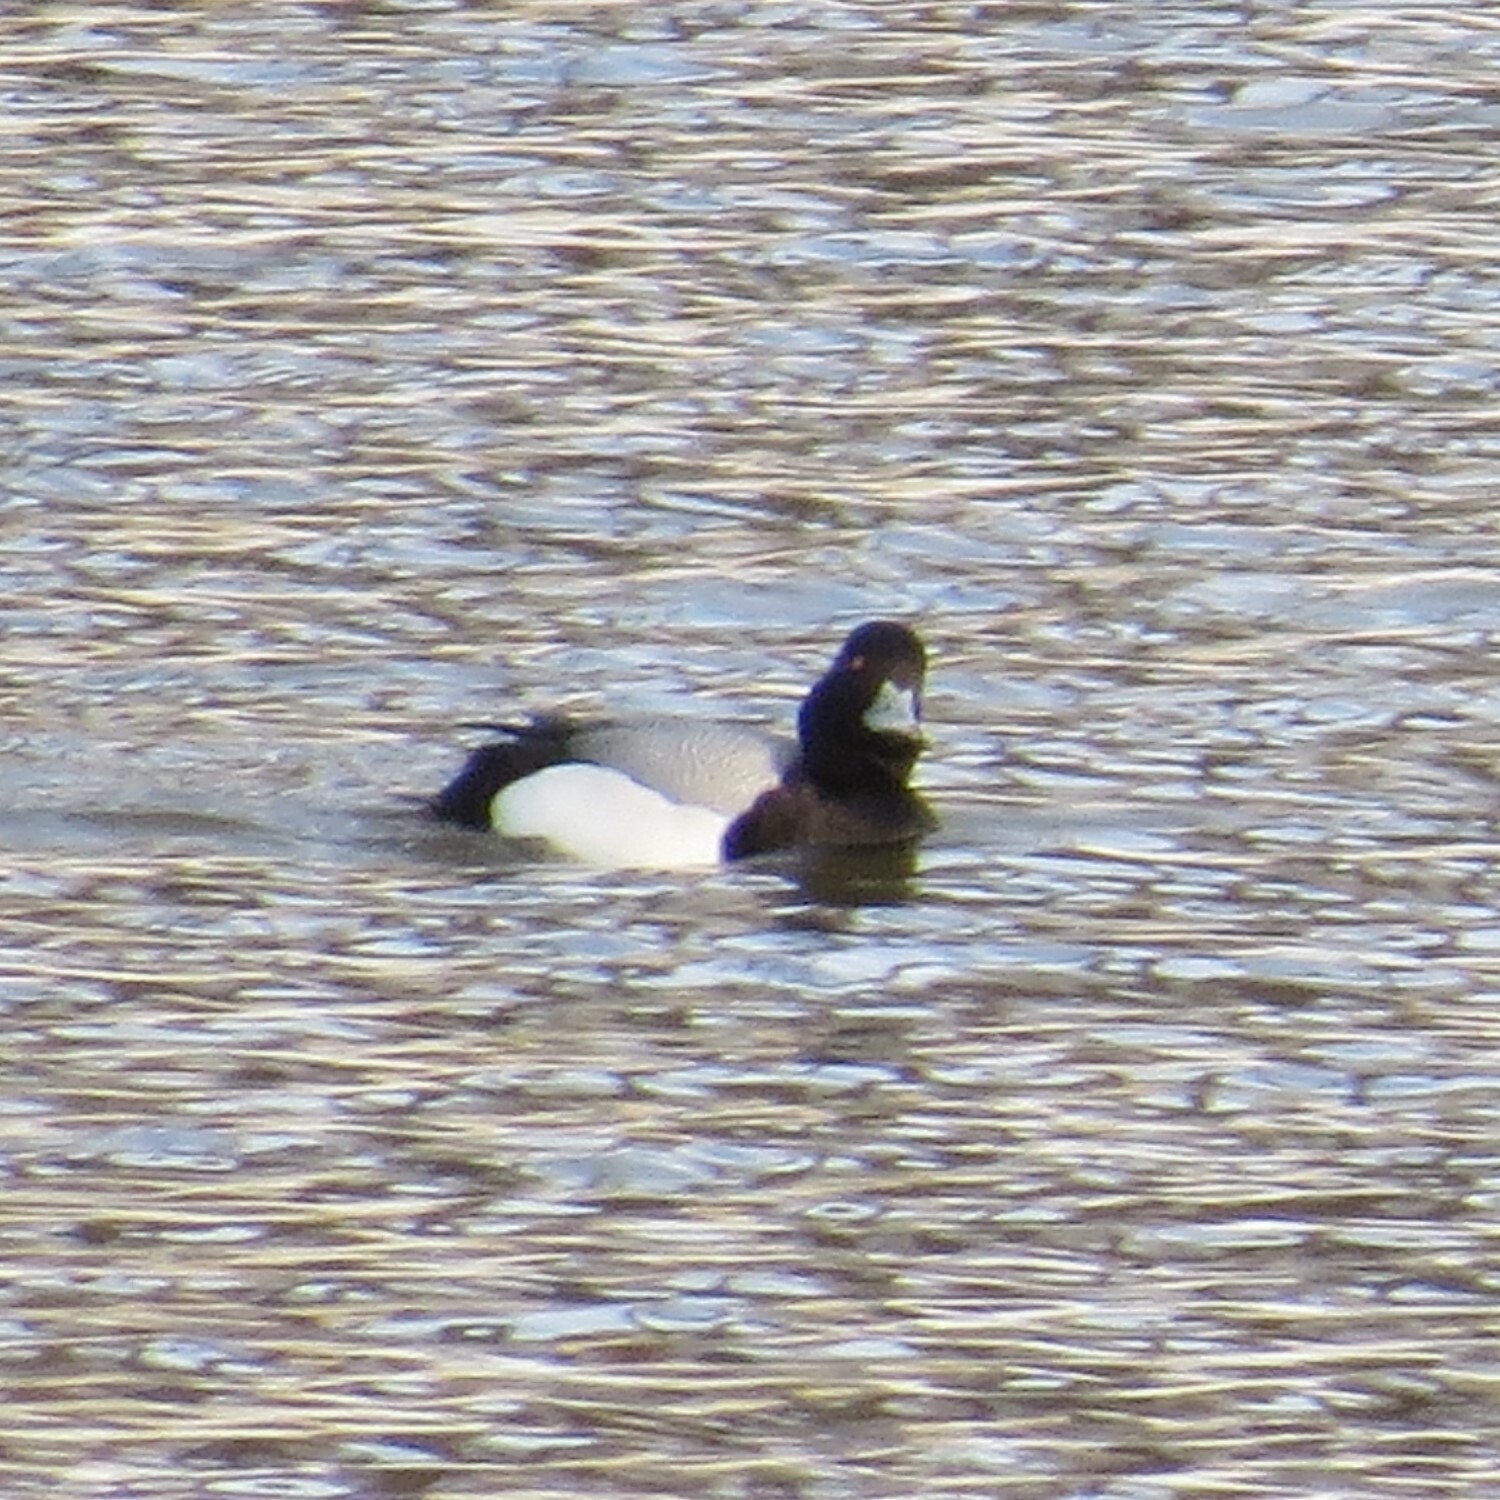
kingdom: Animalia
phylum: Chordata
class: Aves
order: Anseriformes
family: Anatidae
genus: Aythya
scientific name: Aythya affinis
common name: Lesser scaup
